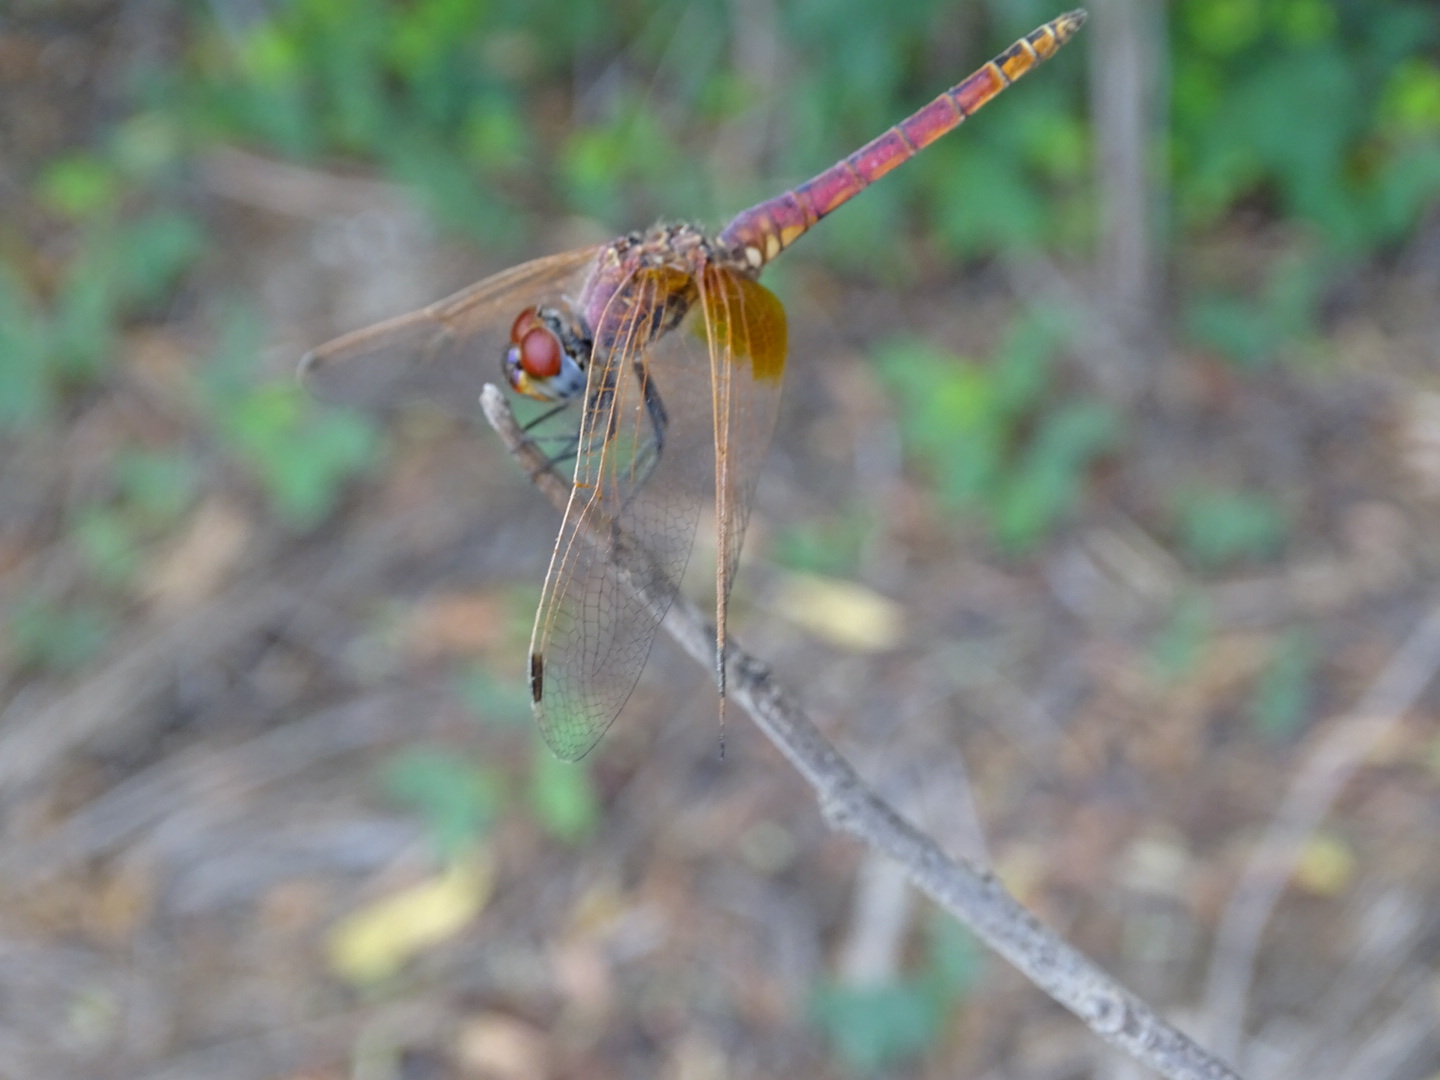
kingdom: Animalia
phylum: Arthropoda
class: Insecta
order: Odonata
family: Libellulidae
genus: Trithemis
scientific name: Trithemis annulata
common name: Violet dropwing
